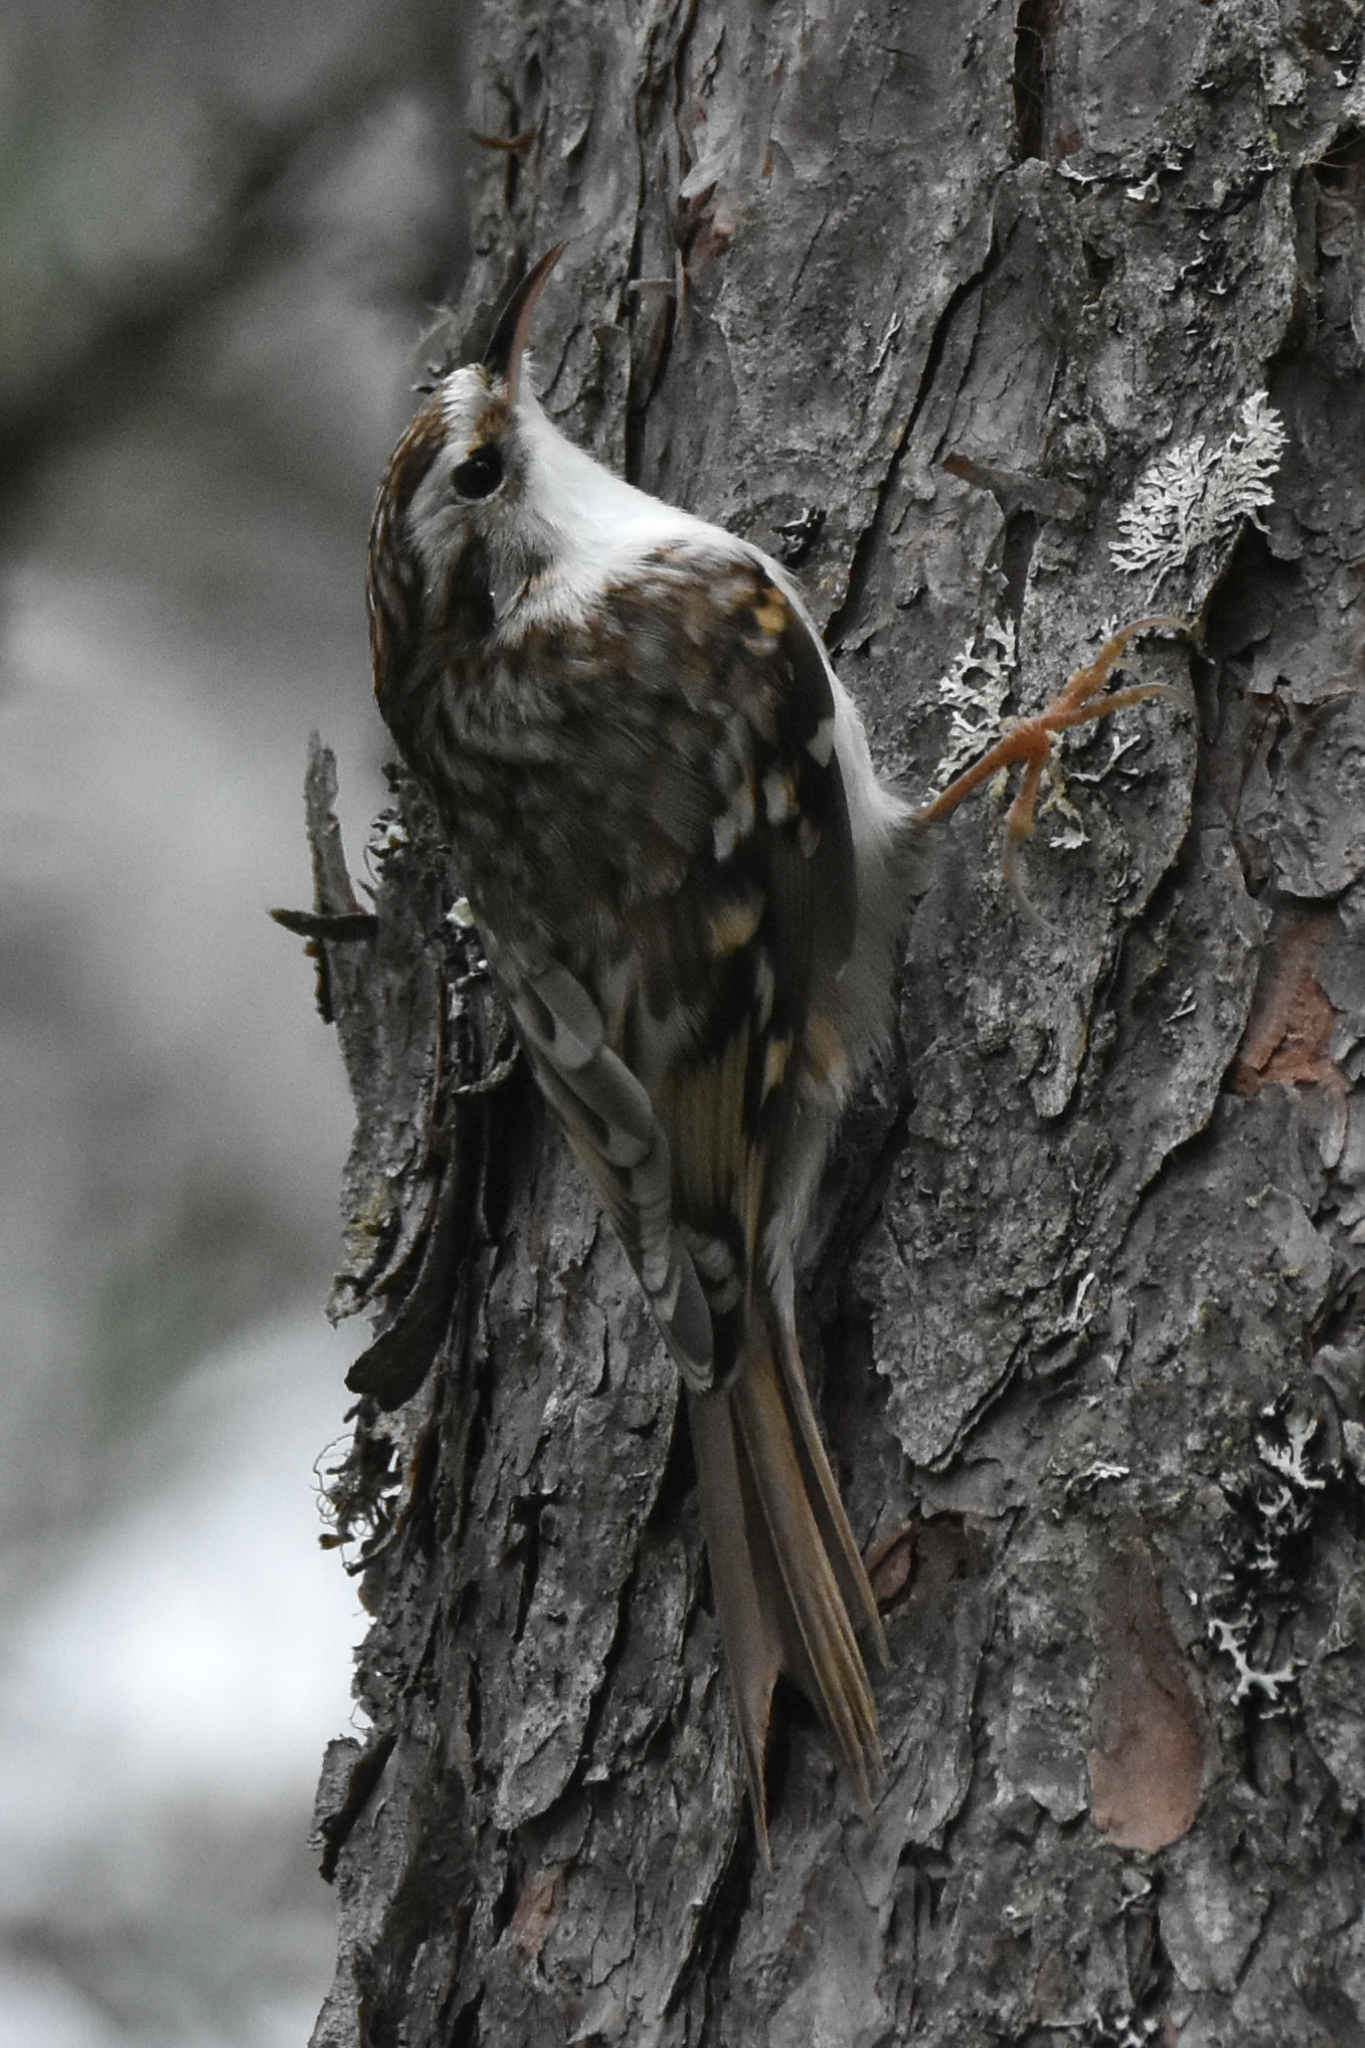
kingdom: Animalia
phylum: Chordata
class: Aves
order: Passeriformes
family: Certhiidae
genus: Certhia
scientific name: Certhia familiaris
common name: Eurasian treecreeper
